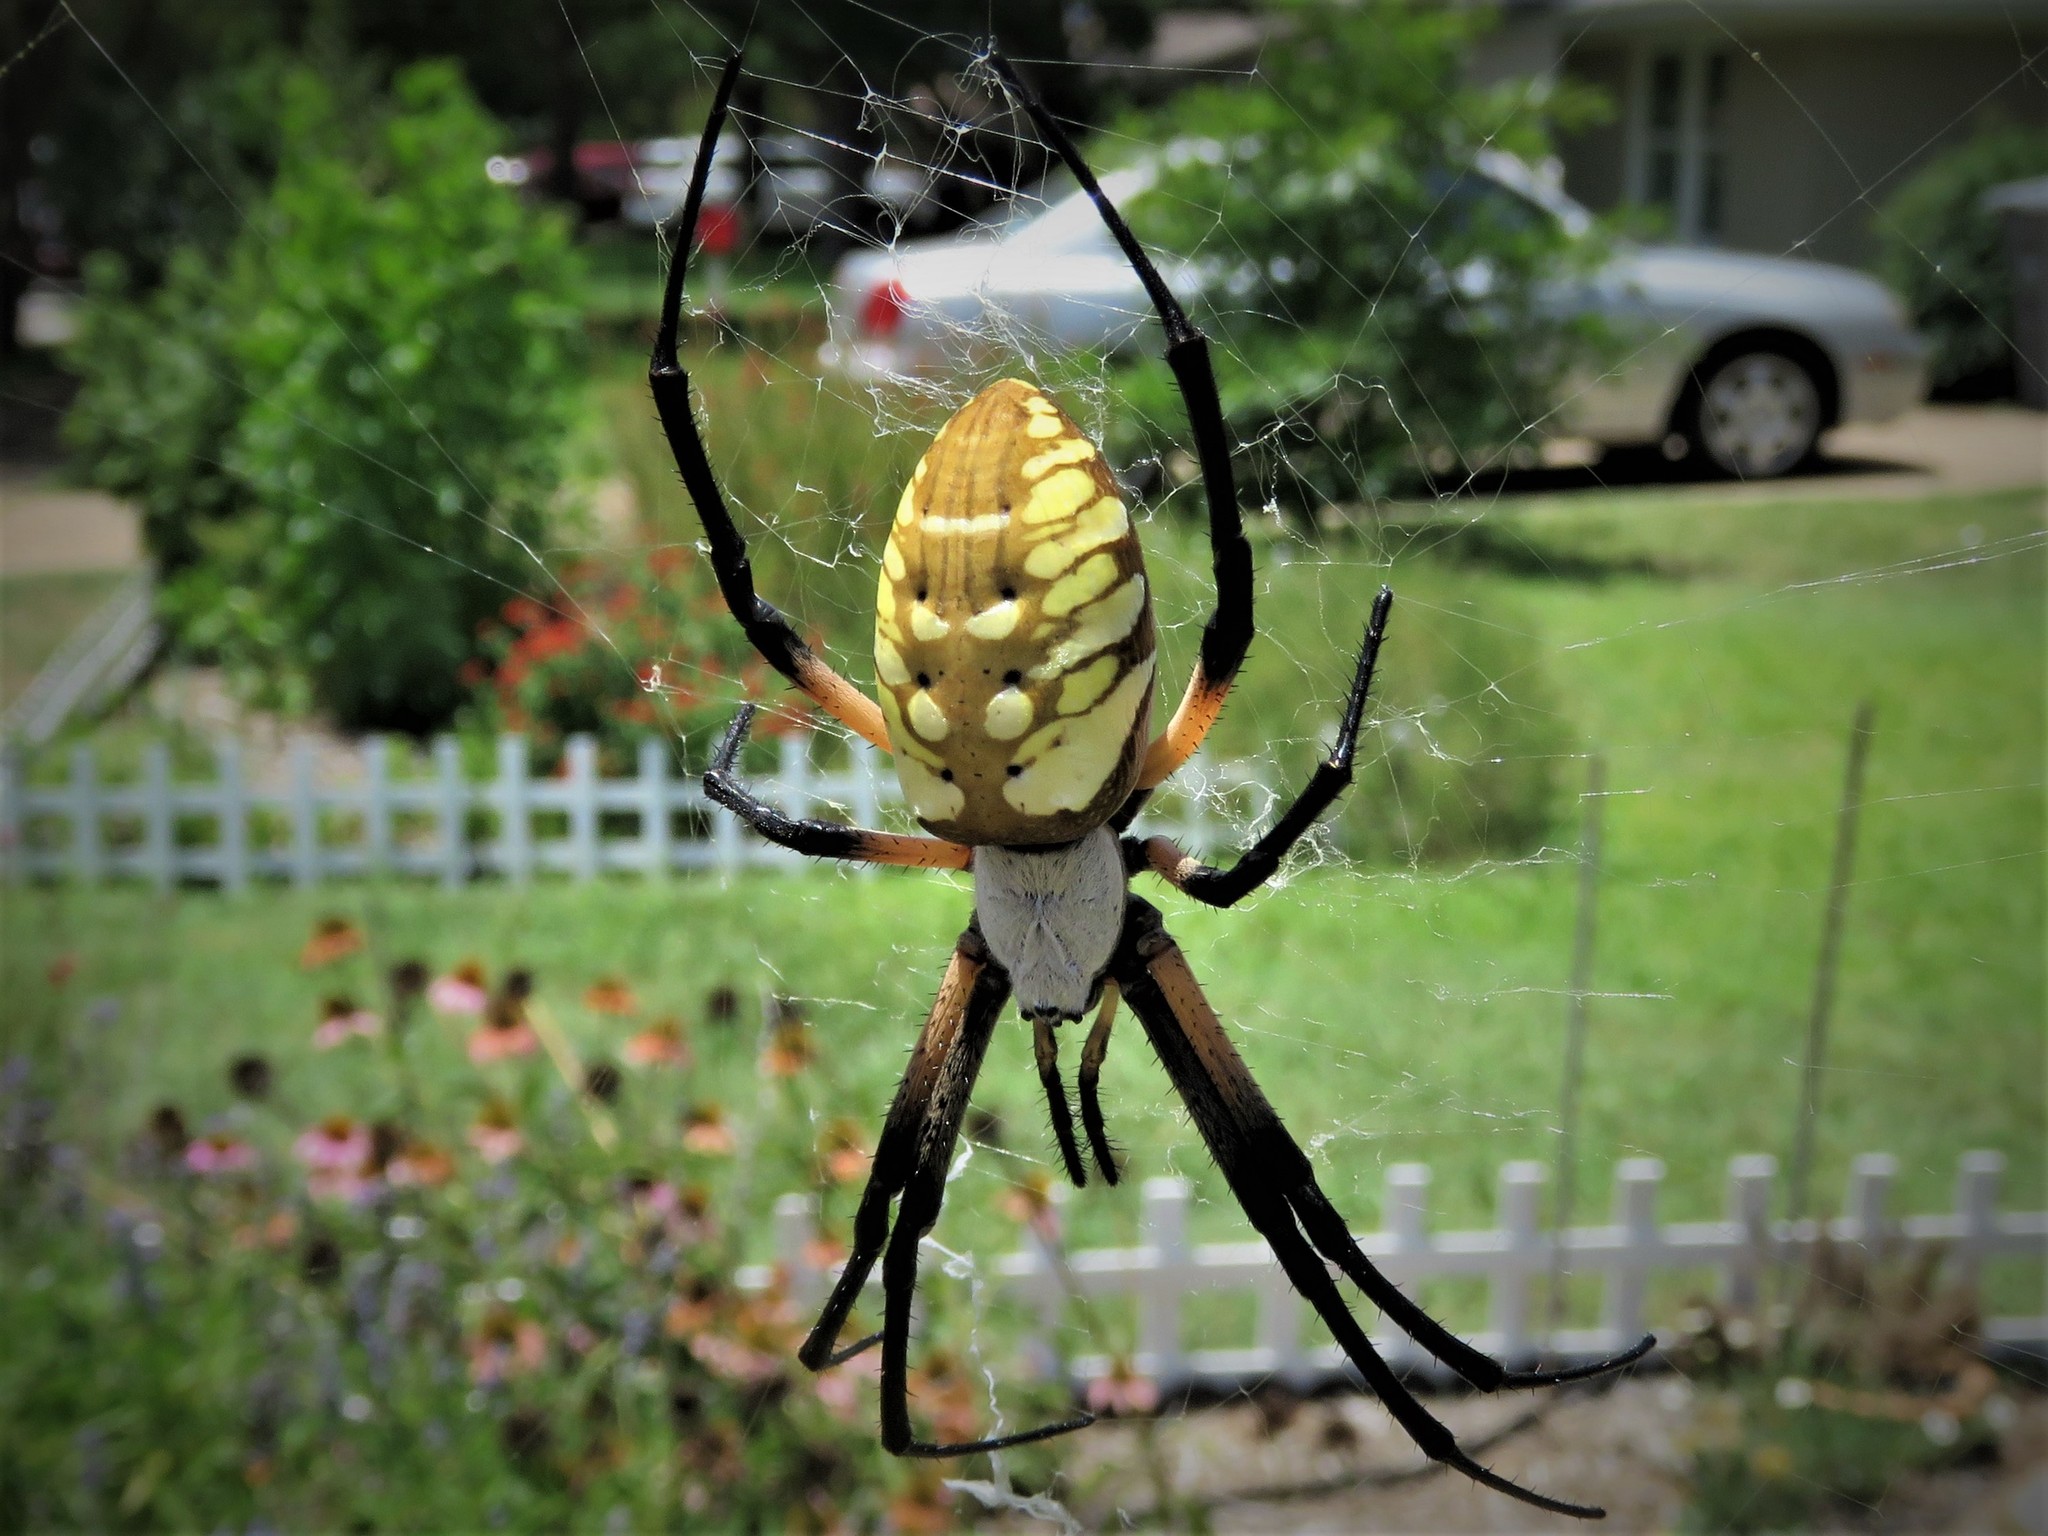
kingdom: Animalia
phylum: Arthropoda
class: Arachnida
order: Araneae
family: Araneidae
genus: Argiope
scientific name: Argiope aurantia
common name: Orb weavers
